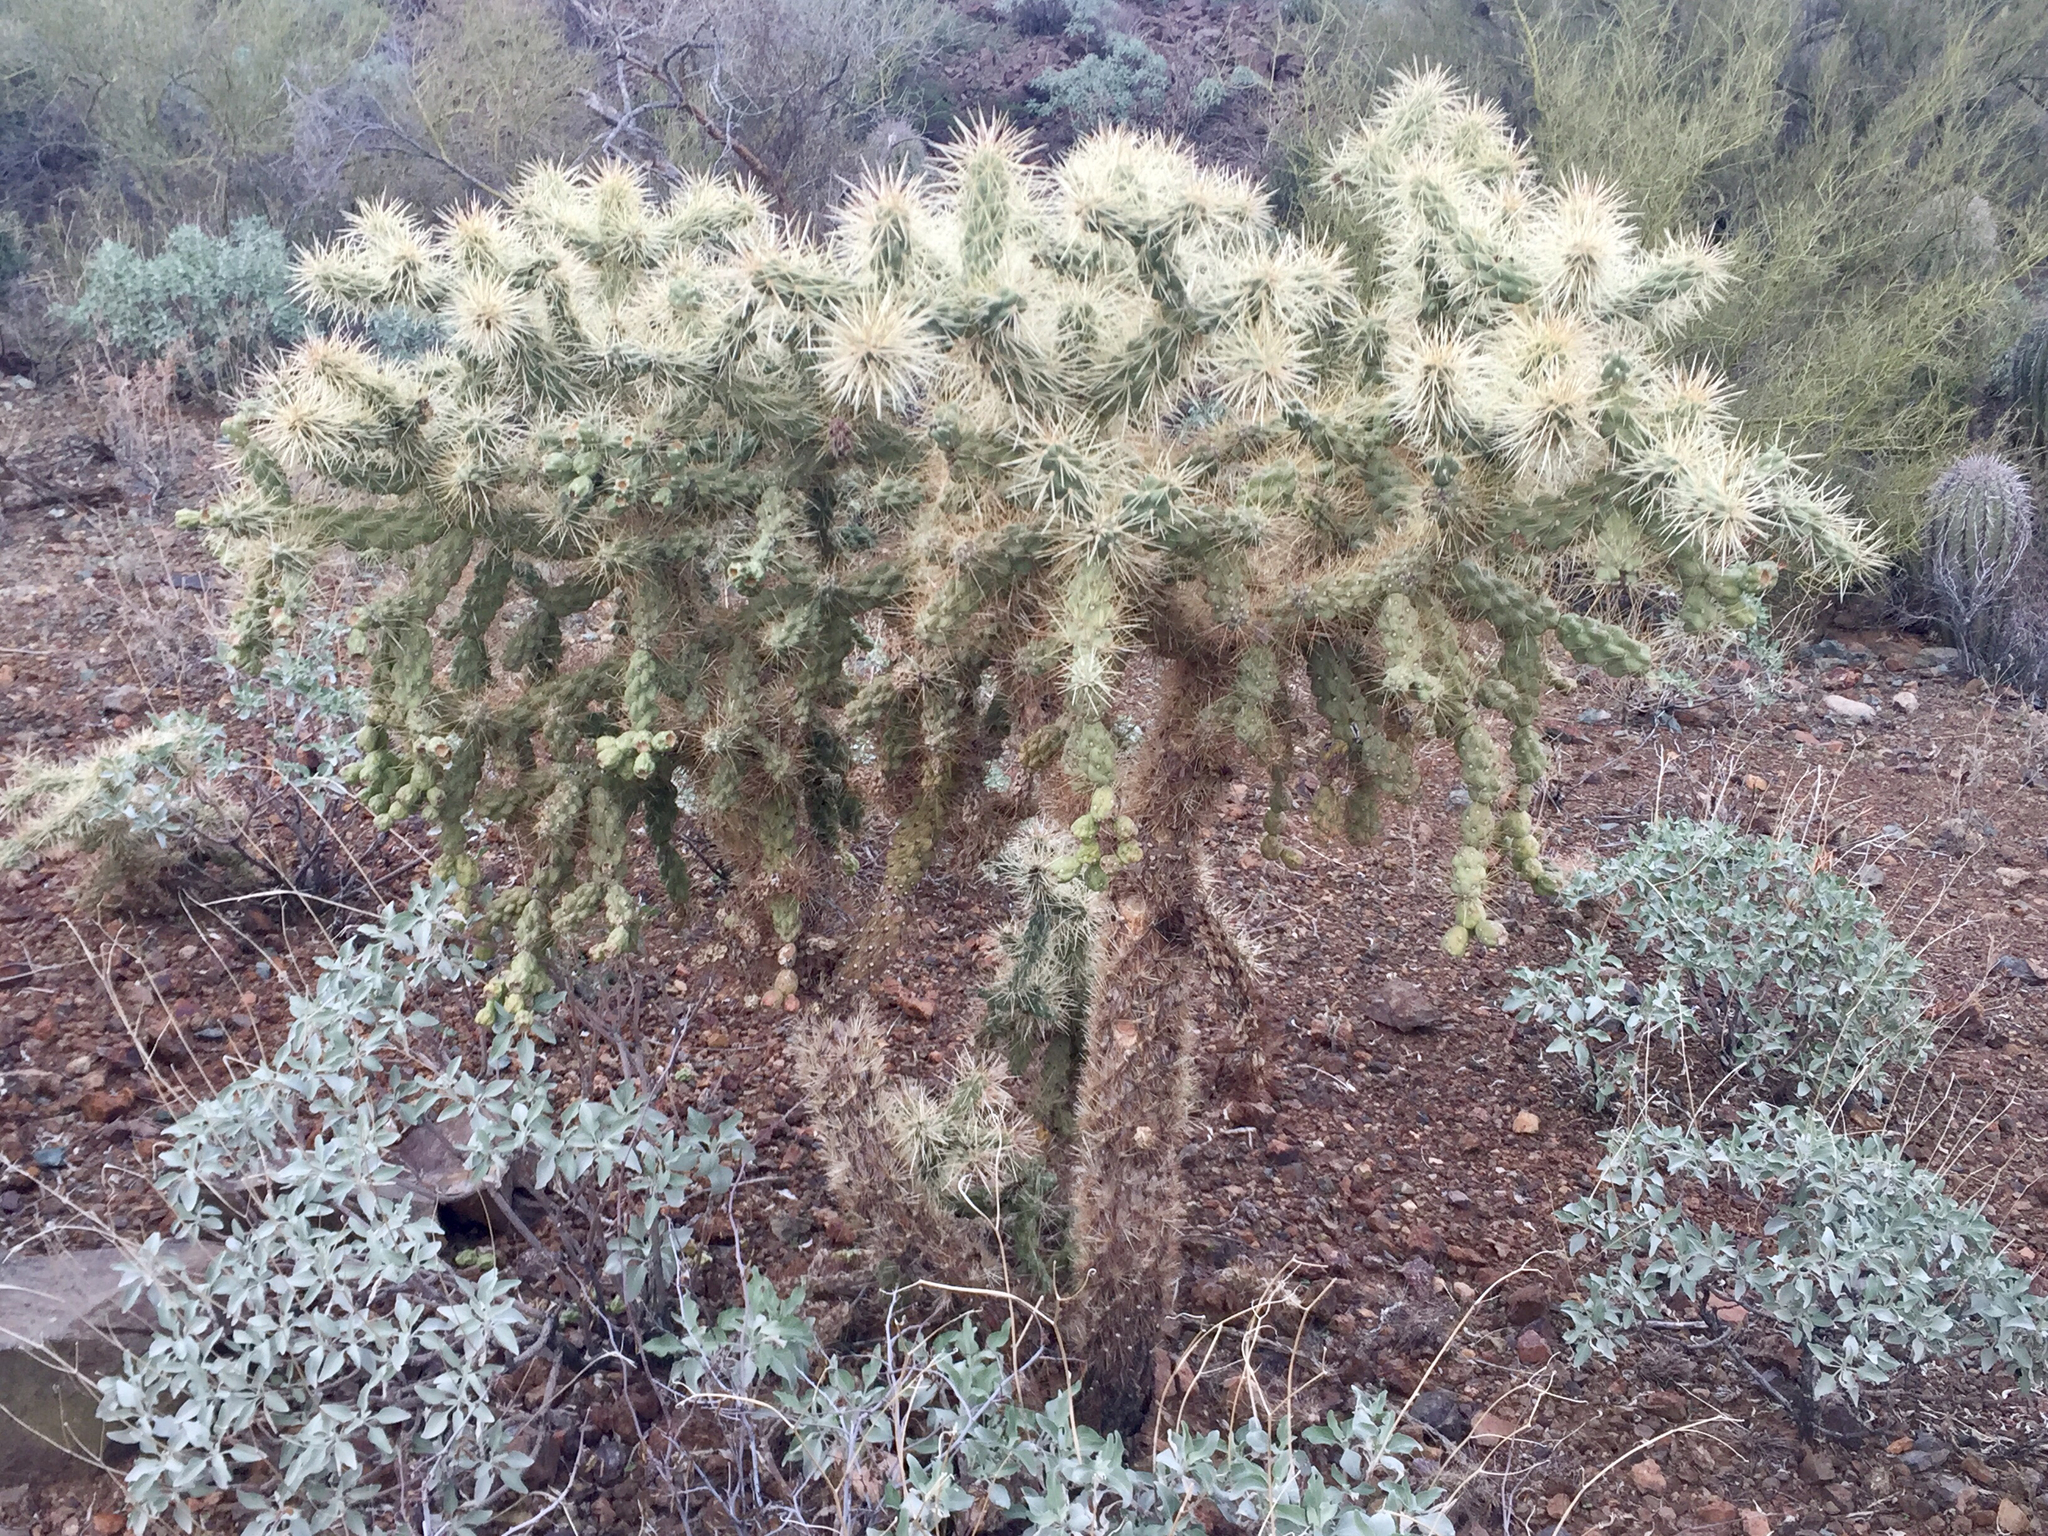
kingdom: Plantae
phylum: Tracheophyta
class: Magnoliopsida
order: Caryophyllales
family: Cactaceae
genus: Cylindropuntia
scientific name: Cylindropuntia fulgida
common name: Jumping cholla
